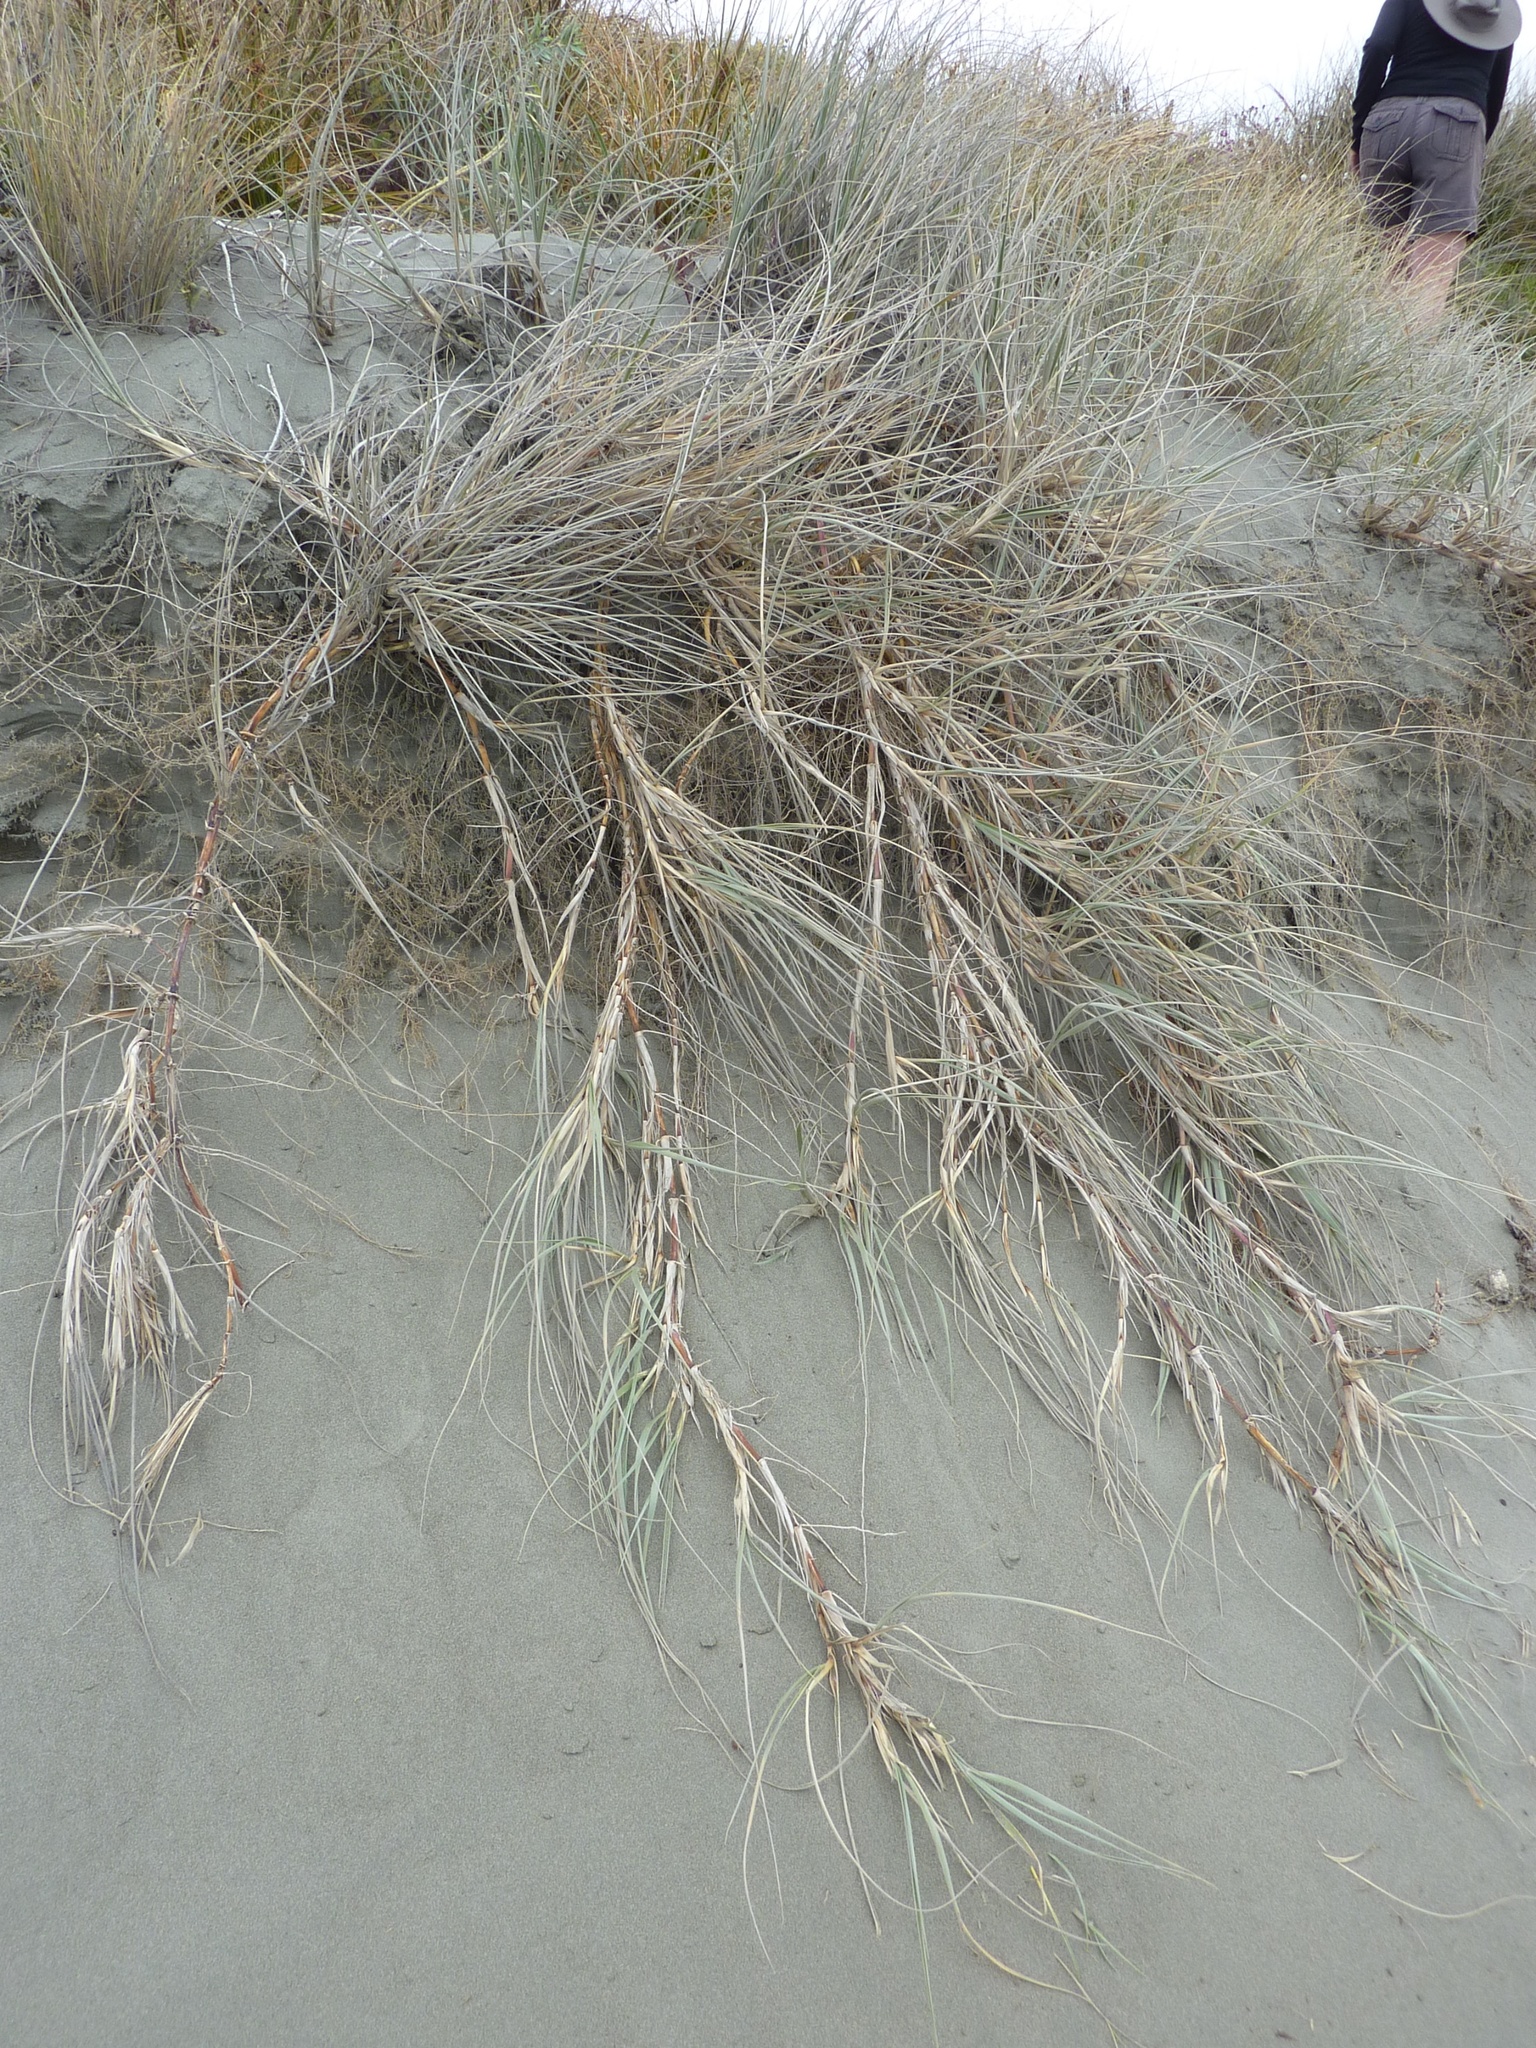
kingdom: Plantae
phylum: Tracheophyta
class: Liliopsida
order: Poales
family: Poaceae
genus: Spinifex
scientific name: Spinifex sericeus
